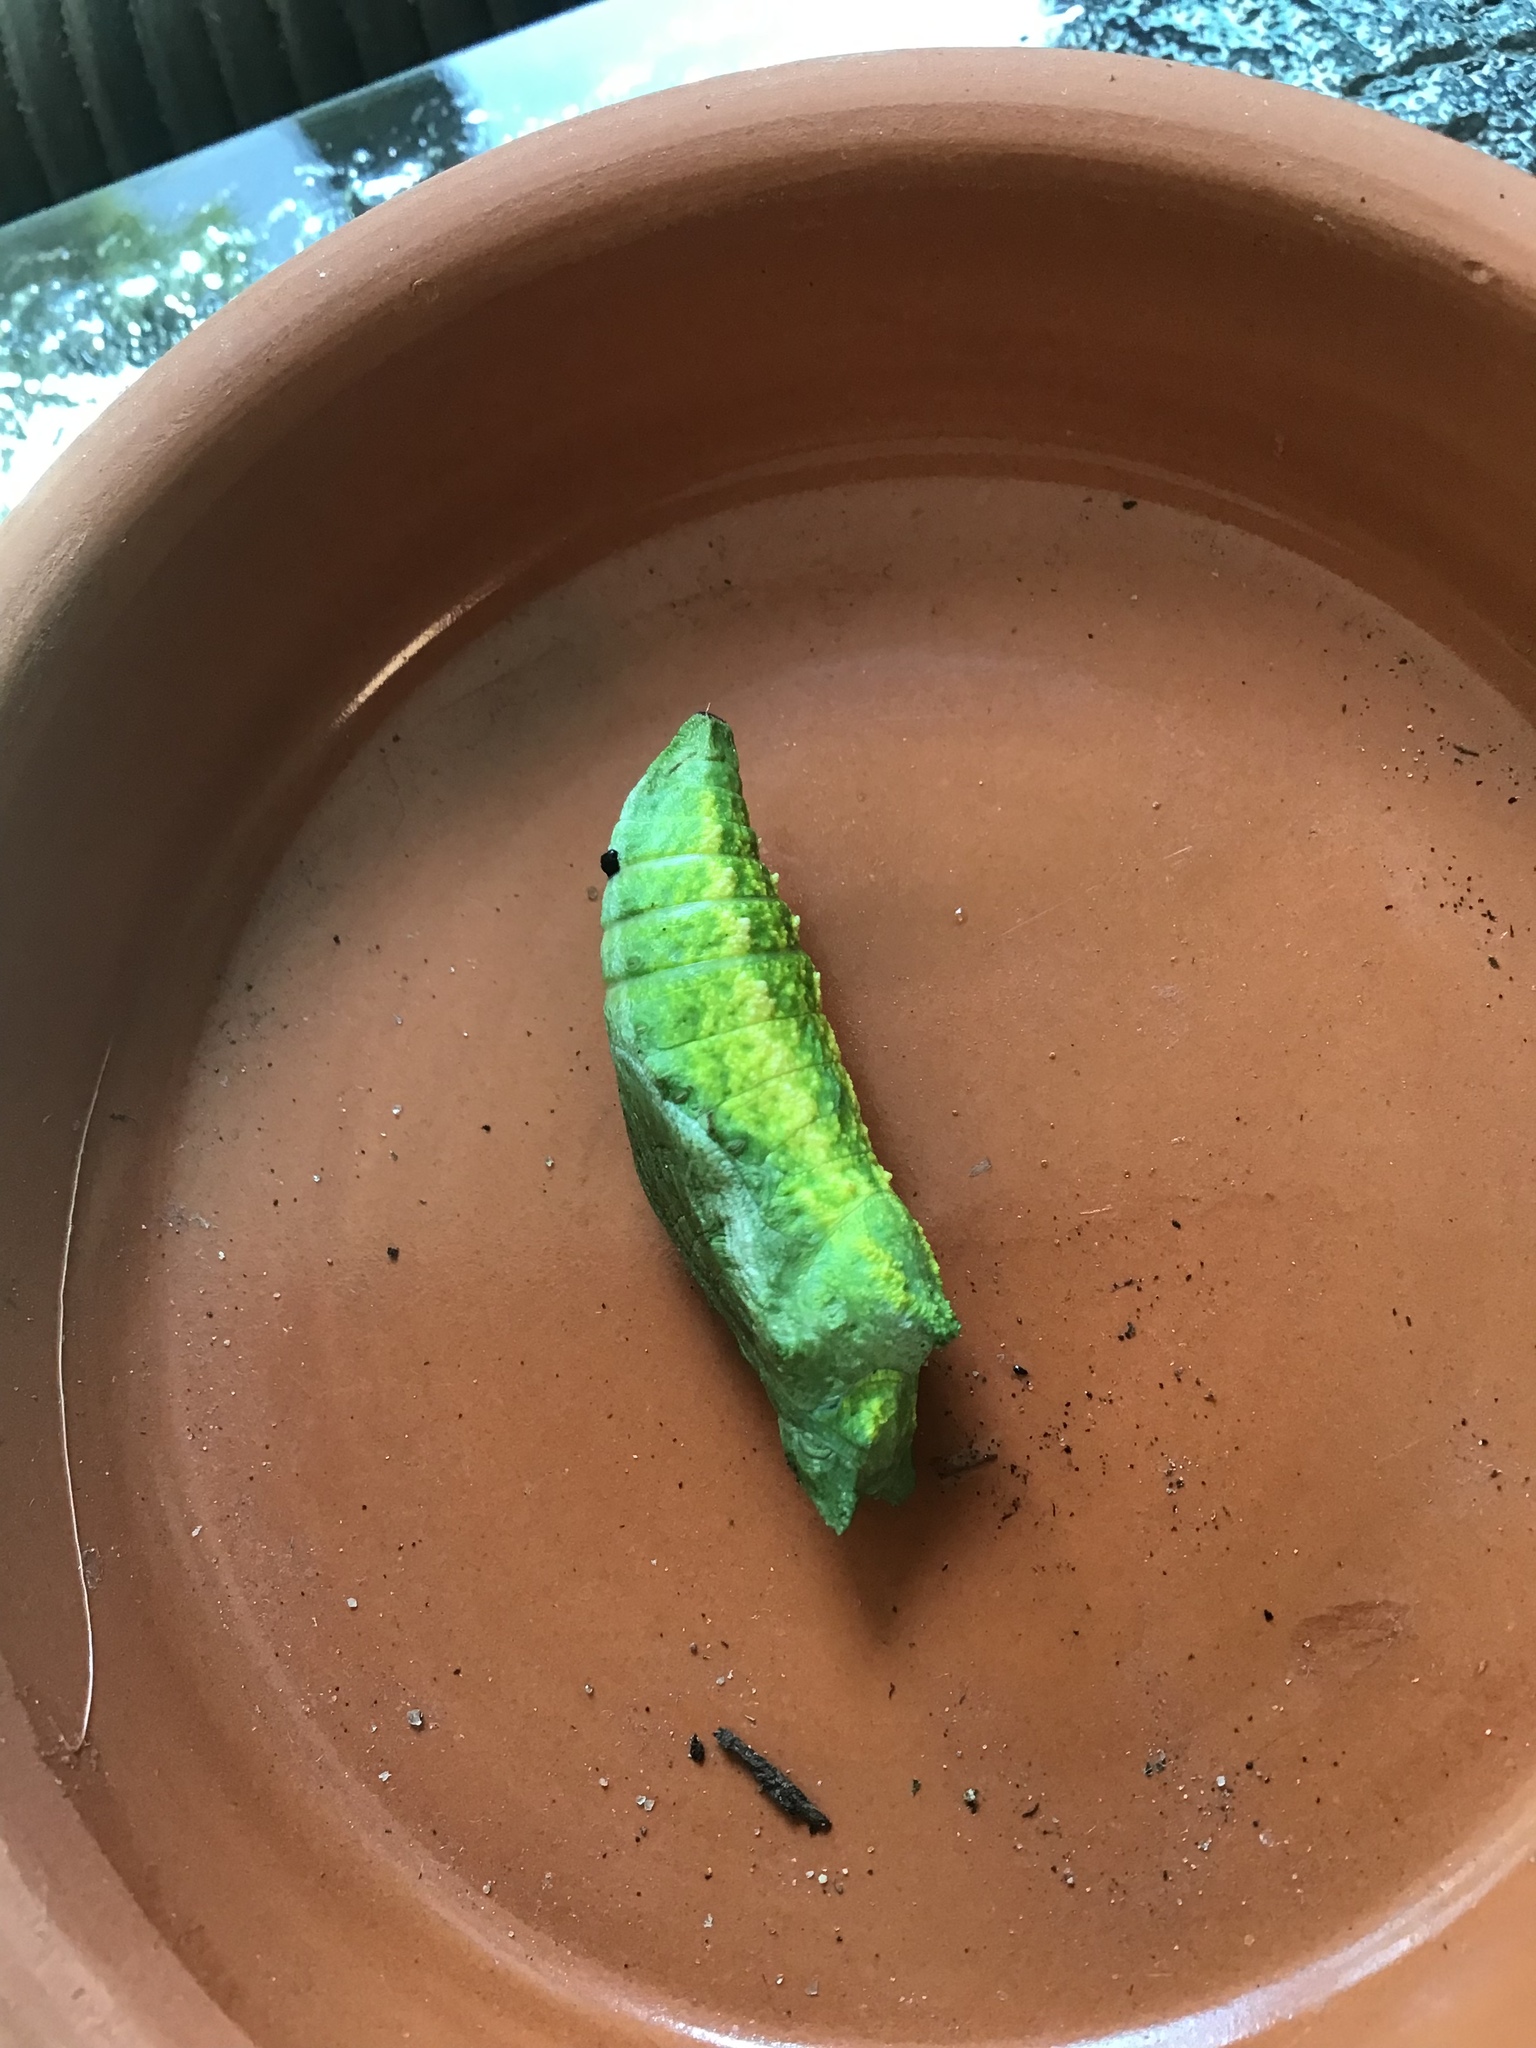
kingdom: Animalia
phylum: Arthropoda
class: Insecta
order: Lepidoptera
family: Papilionidae
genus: Papilio
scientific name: Papilio polyxenes
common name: Black swallowtail
